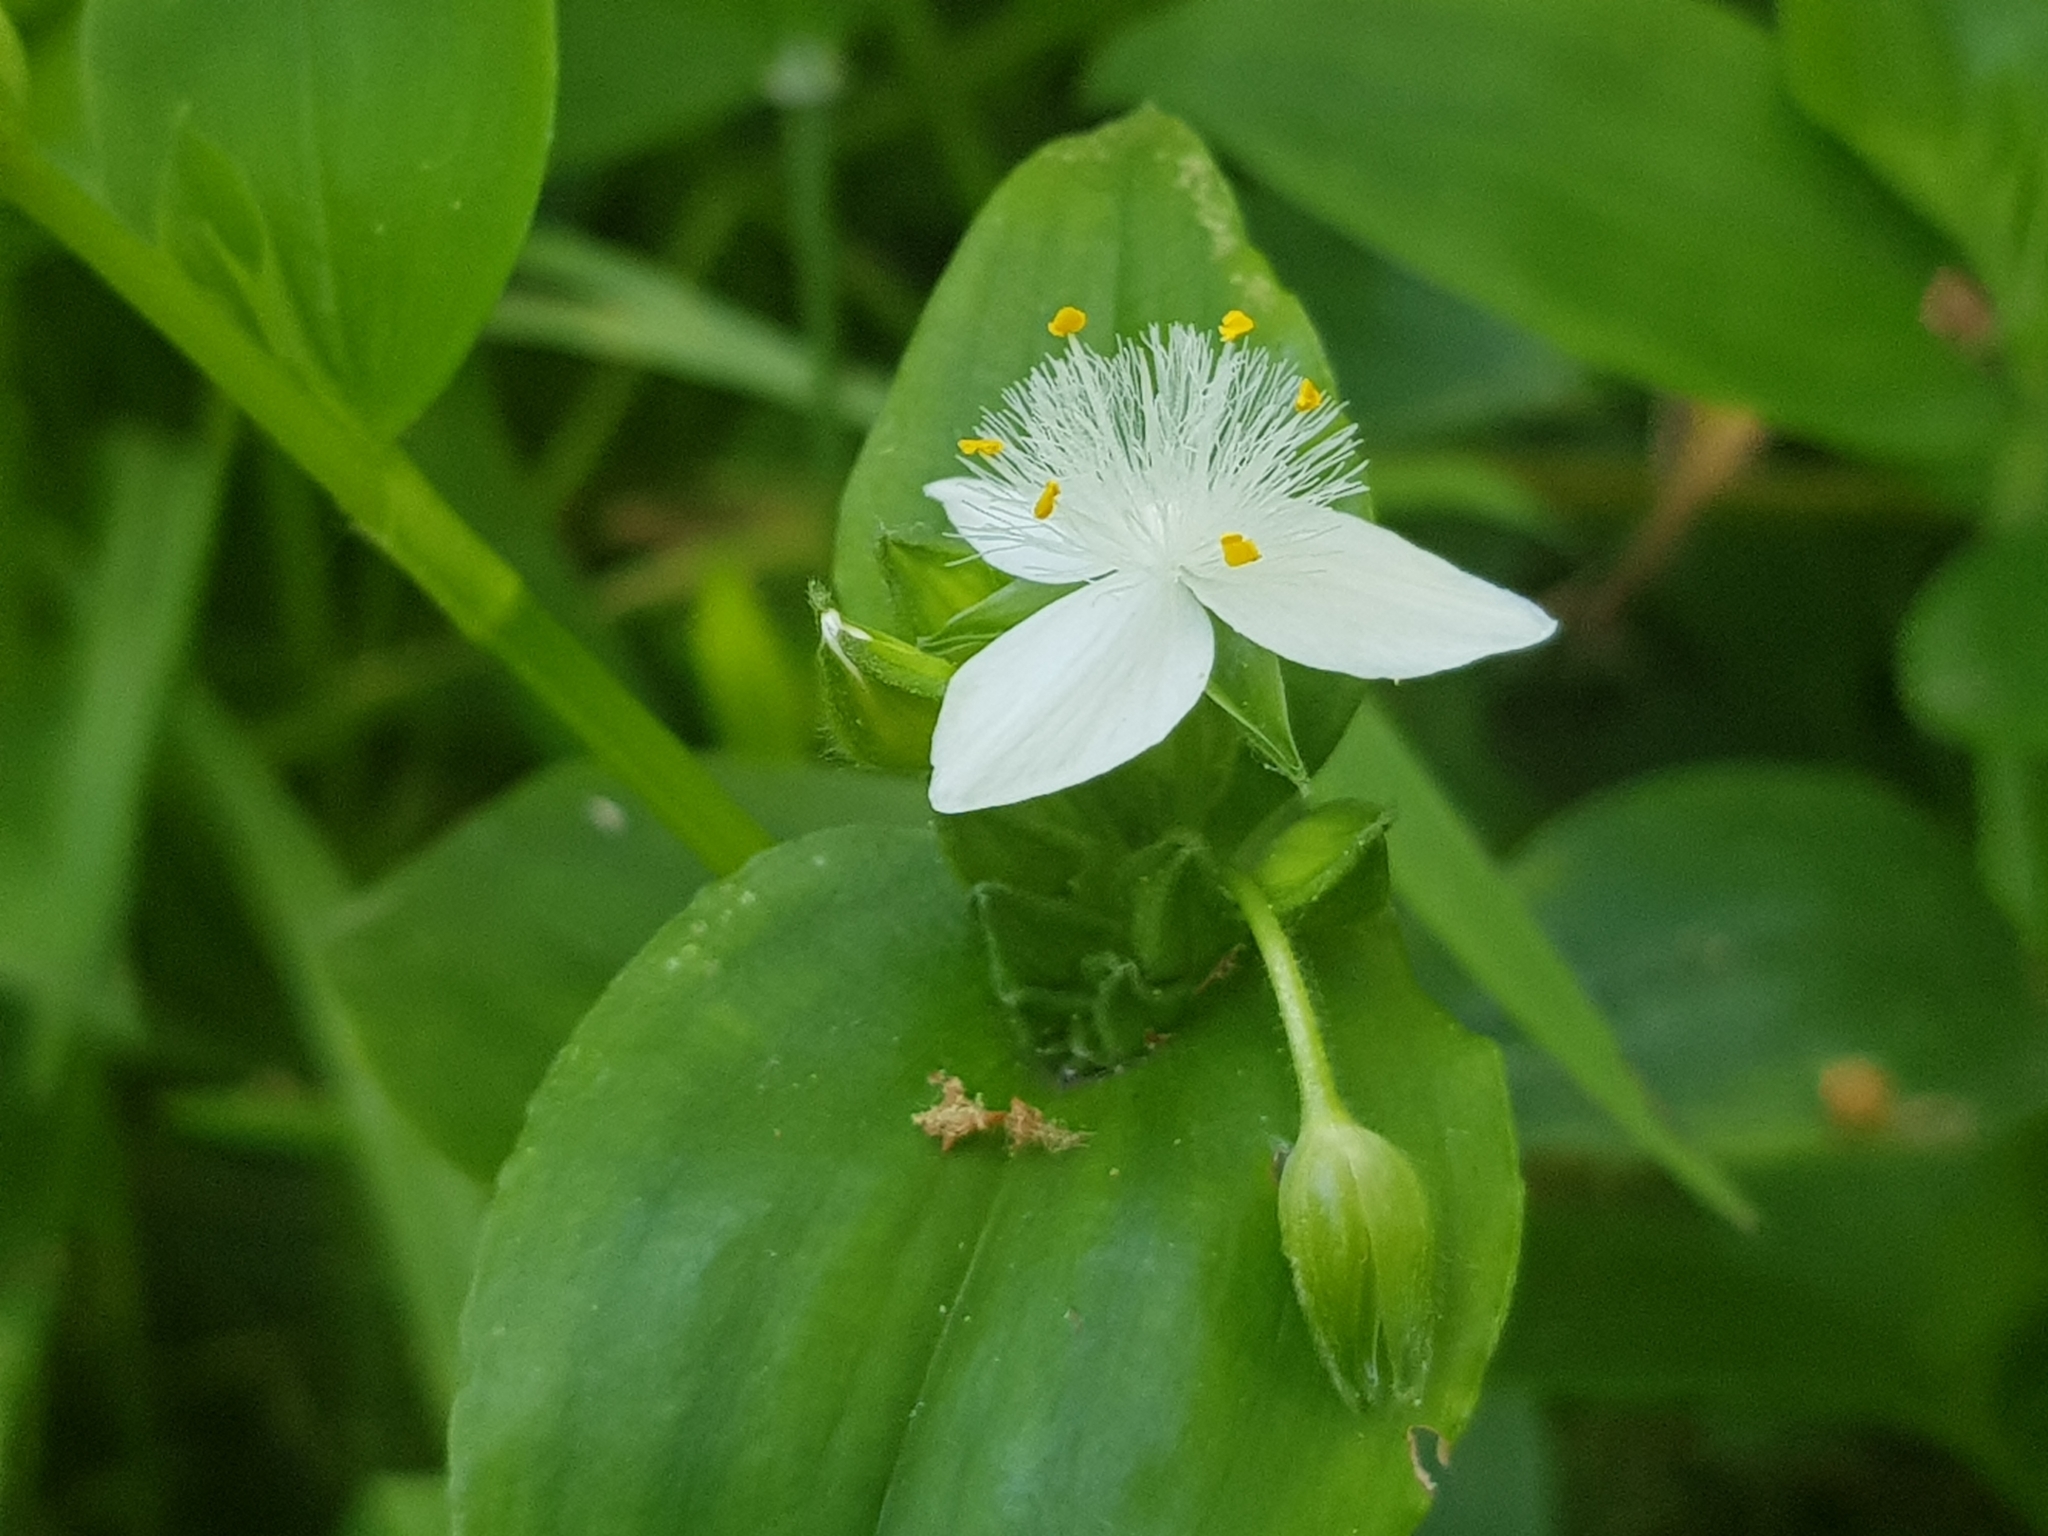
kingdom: Plantae
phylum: Tracheophyta
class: Liliopsida
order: Commelinales
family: Commelinaceae
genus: Tradescantia
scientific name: Tradescantia fluminensis
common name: Wandering-jew
